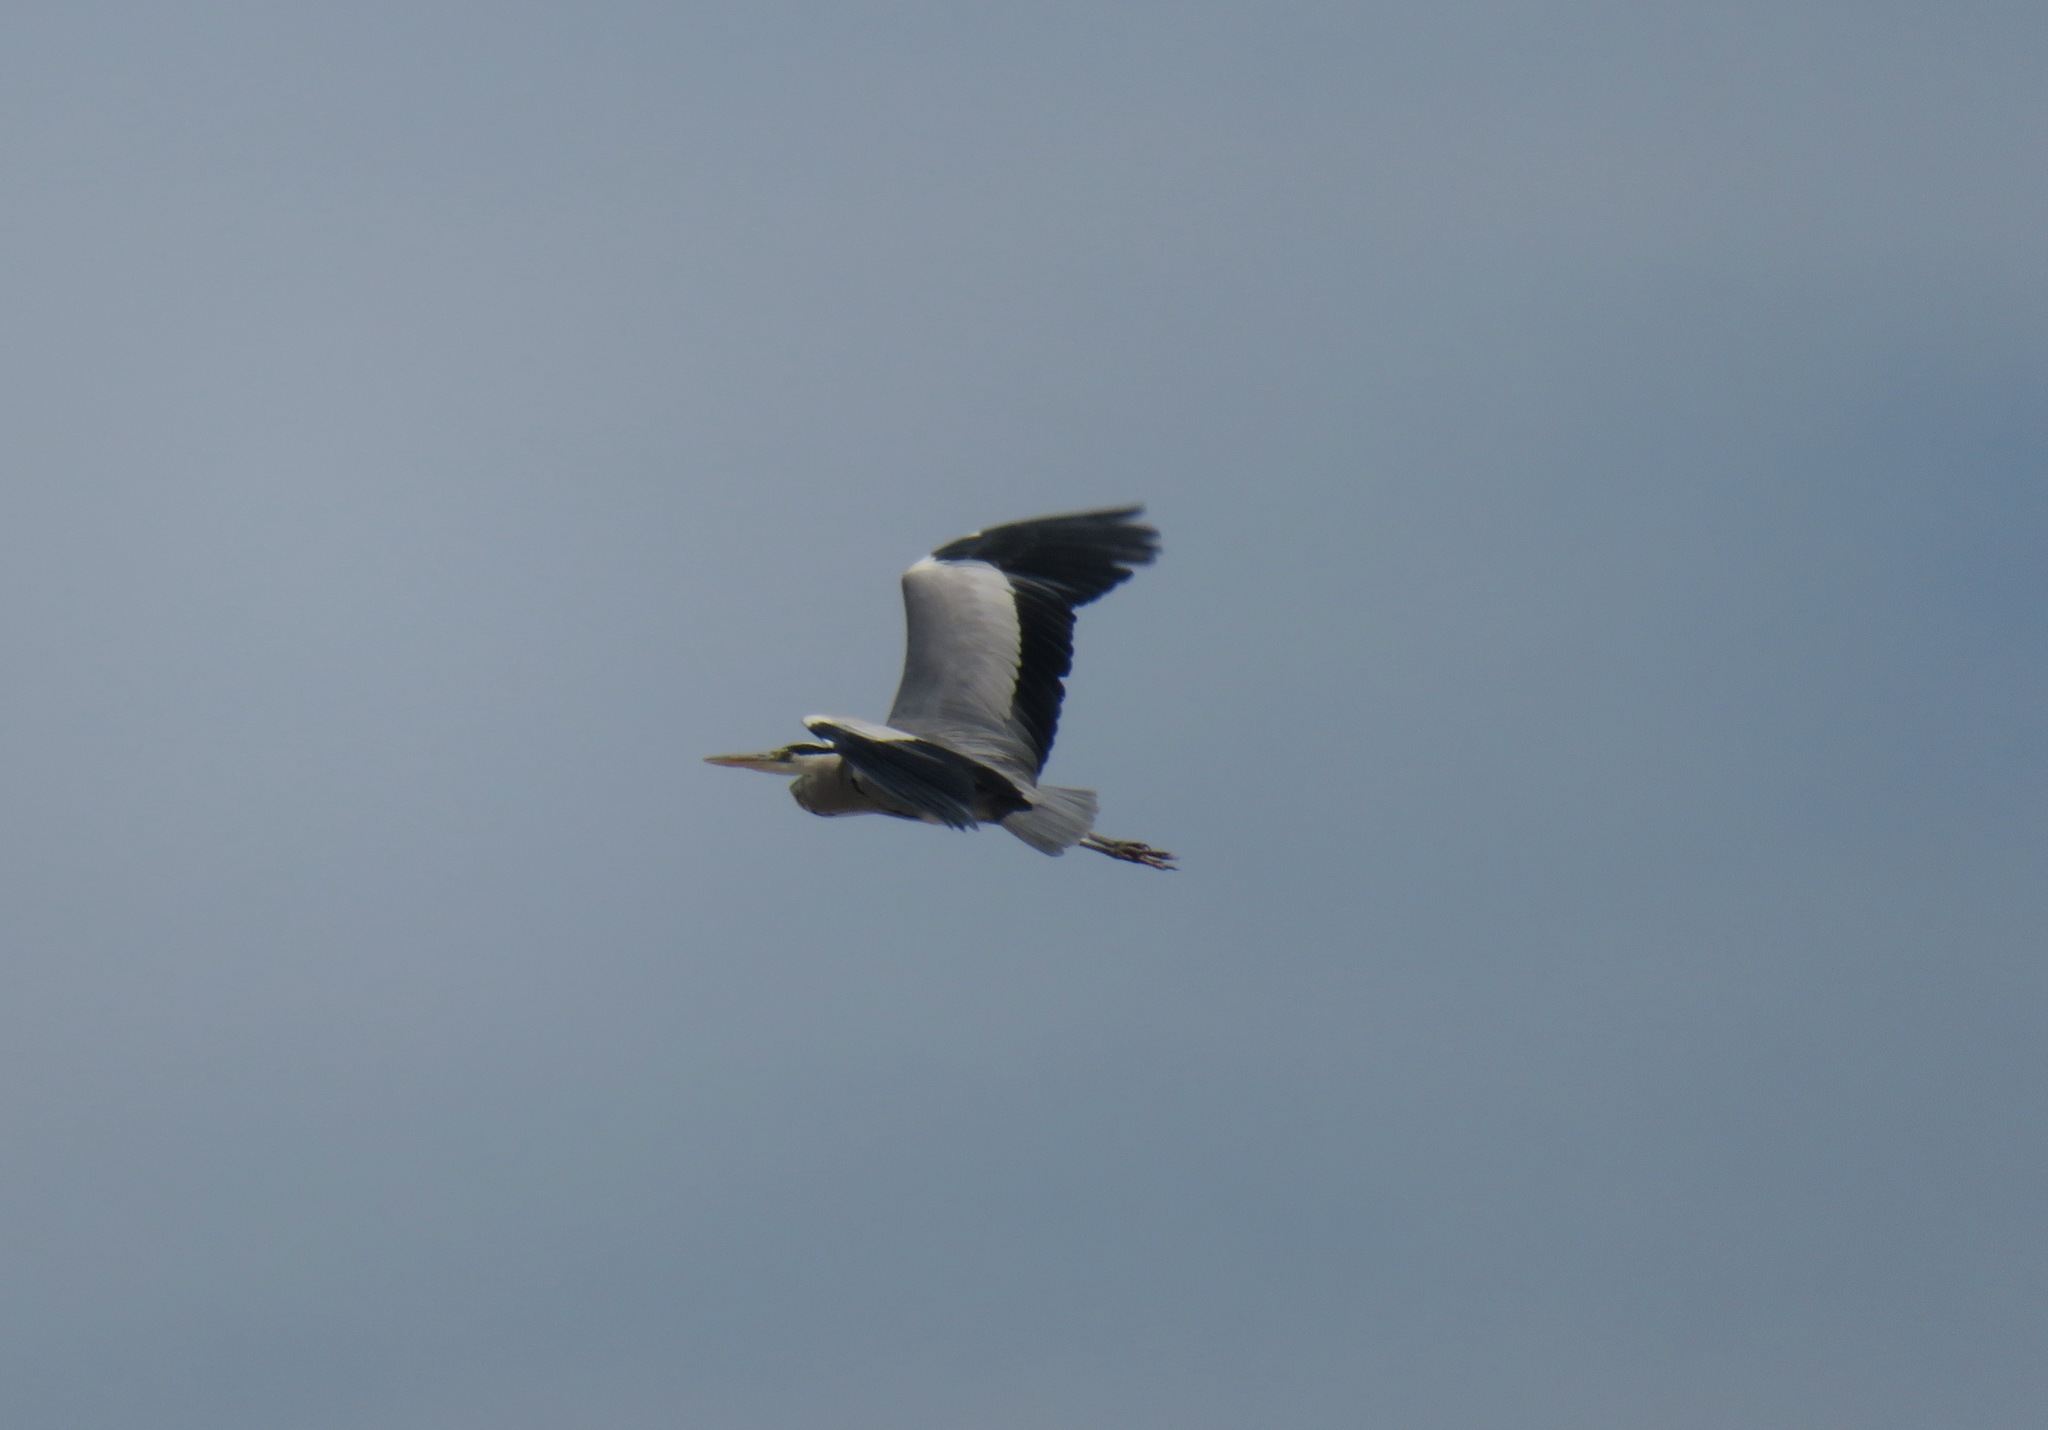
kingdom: Animalia
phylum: Chordata
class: Aves
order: Pelecaniformes
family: Ardeidae
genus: Ardea
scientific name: Ardea cinerea
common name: Grey heron
